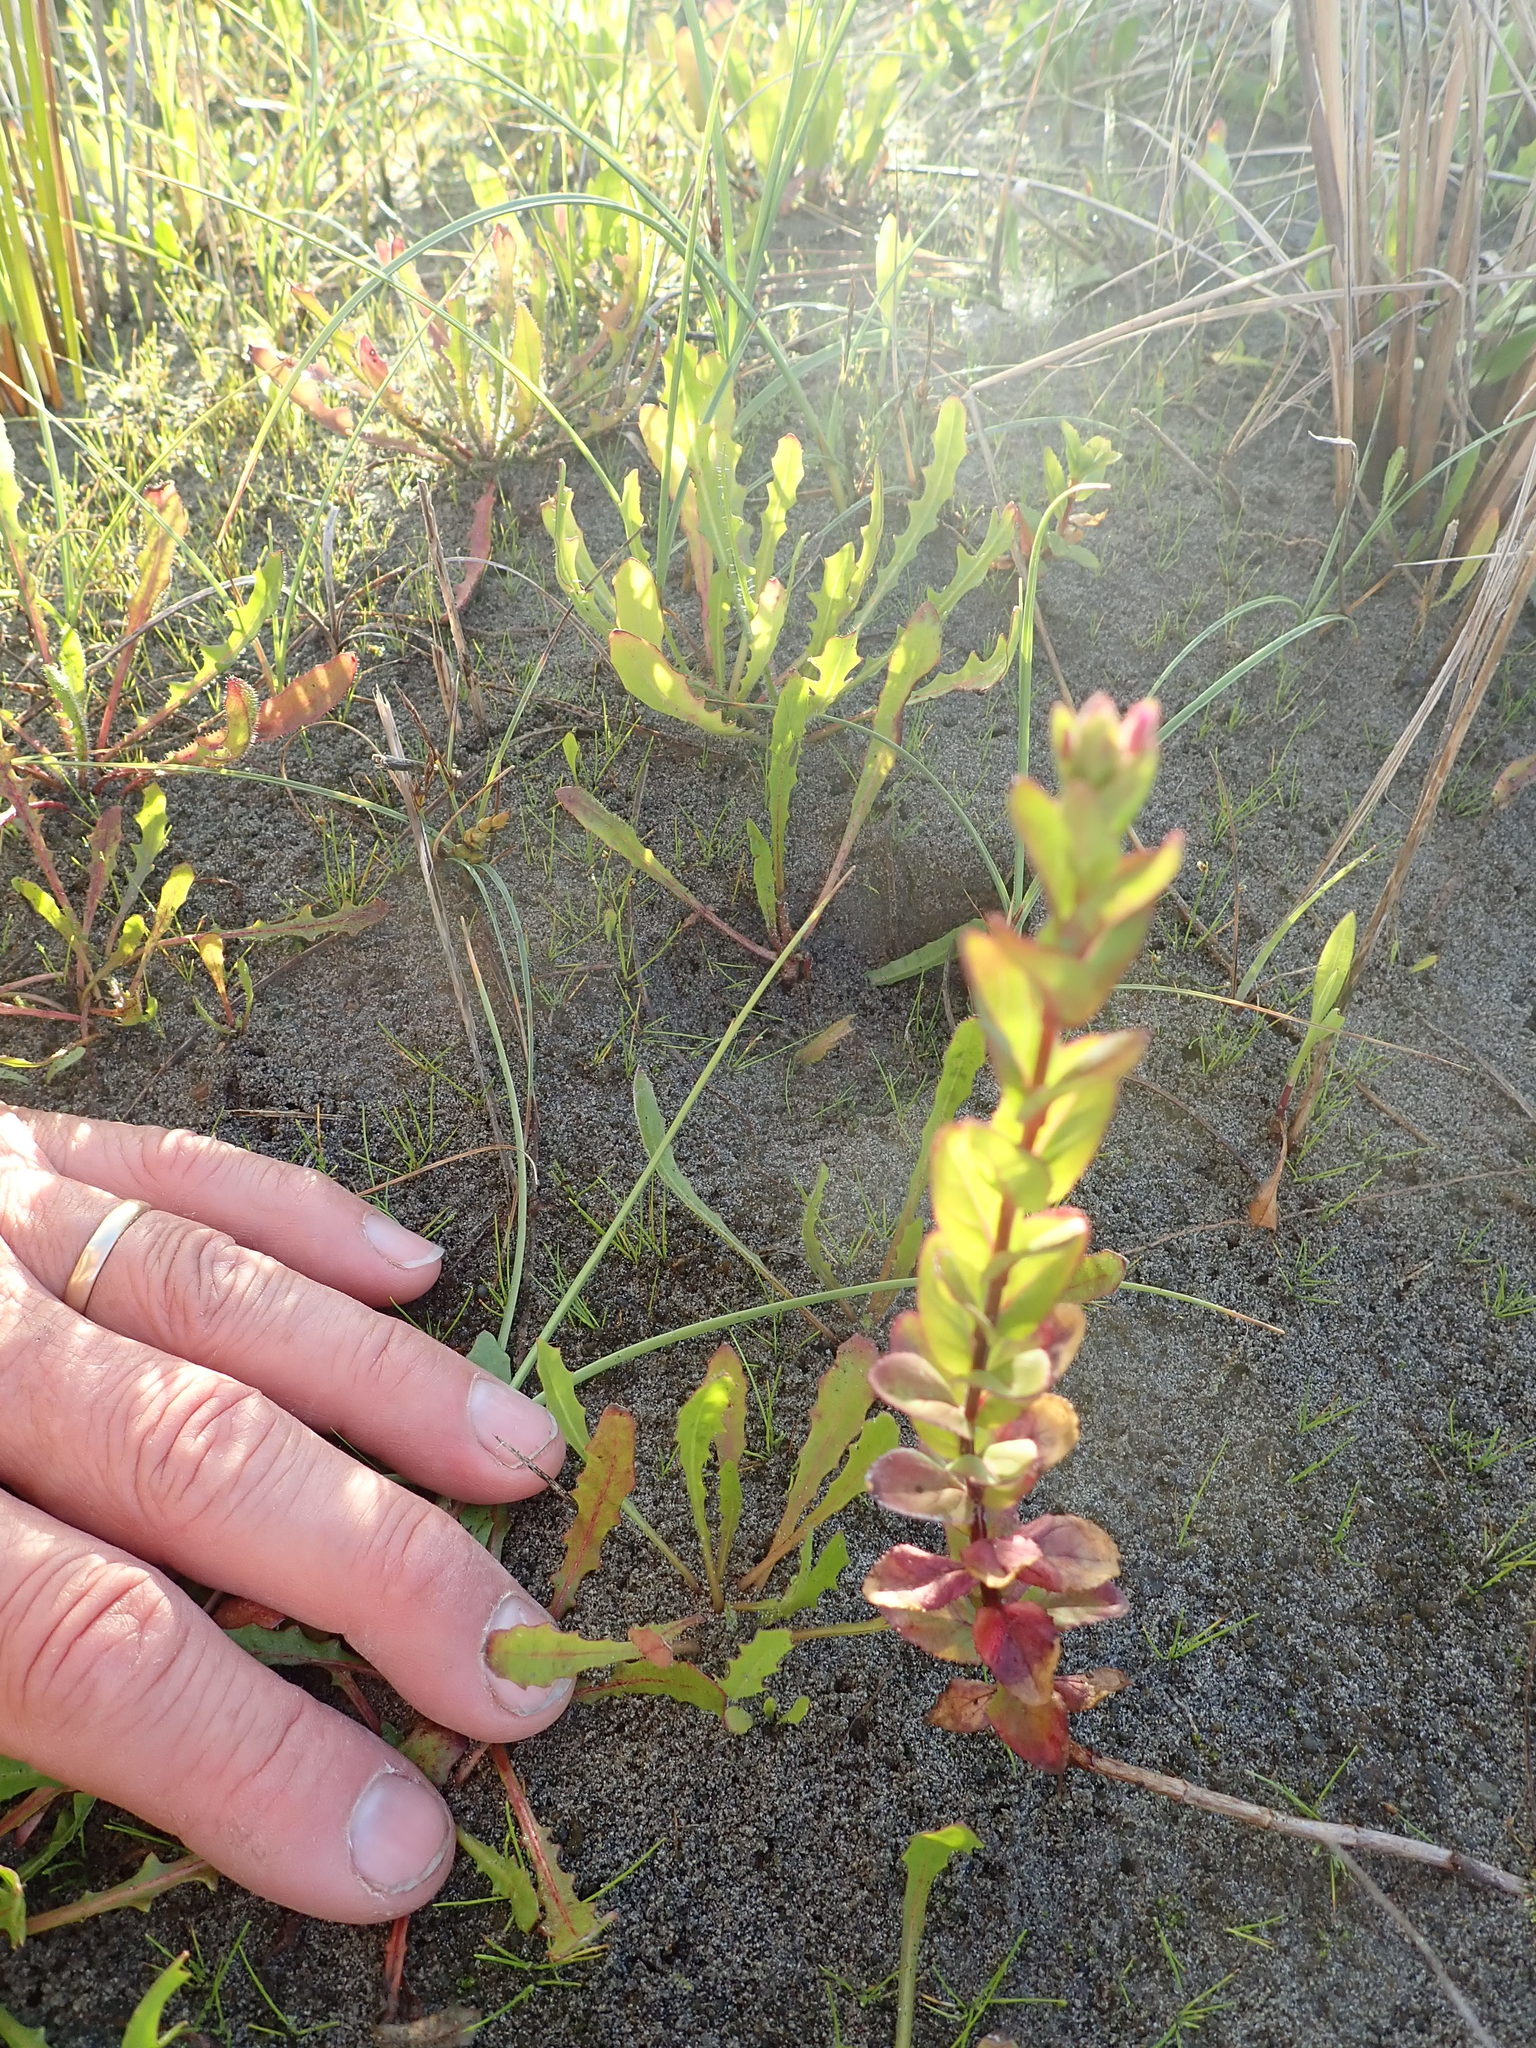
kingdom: Plantae
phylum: Tracheophyta
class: Magnoliopsida
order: Myrtales
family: Onagraceae
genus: Epilobium
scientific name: Epilobium billardiereanum
